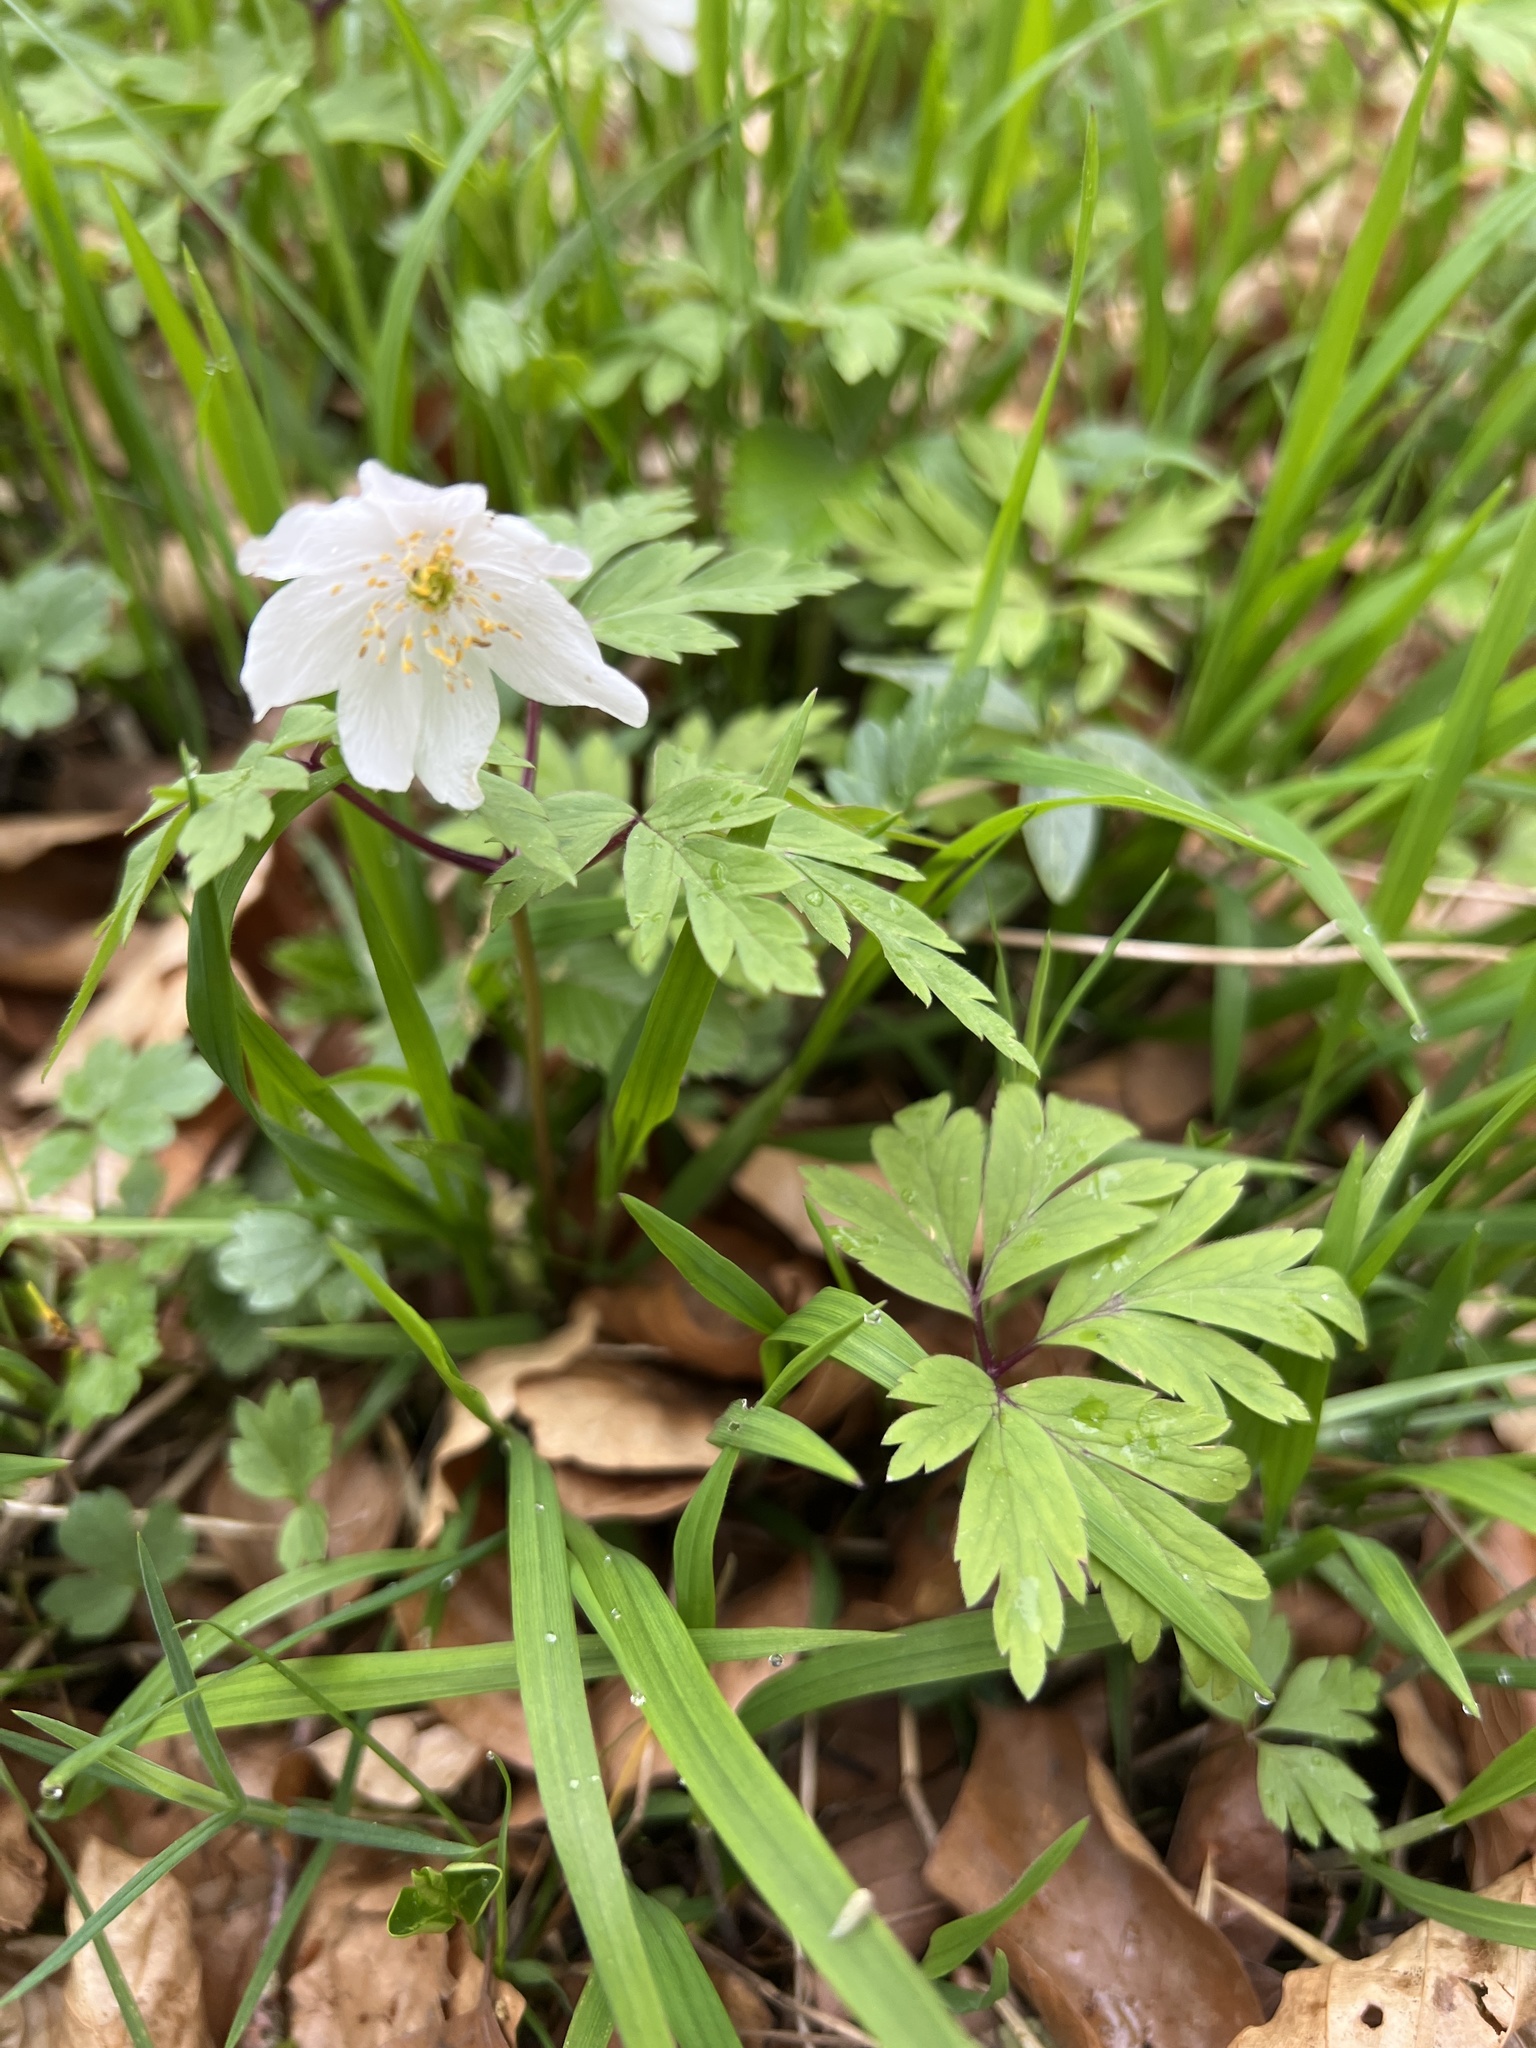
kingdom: Plantae
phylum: Tracheophyta
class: Magnoliopsida
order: Ranunculales
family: Ranunculaceae
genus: Anemone
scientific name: Anemone nemorosa
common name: Wood anemone
